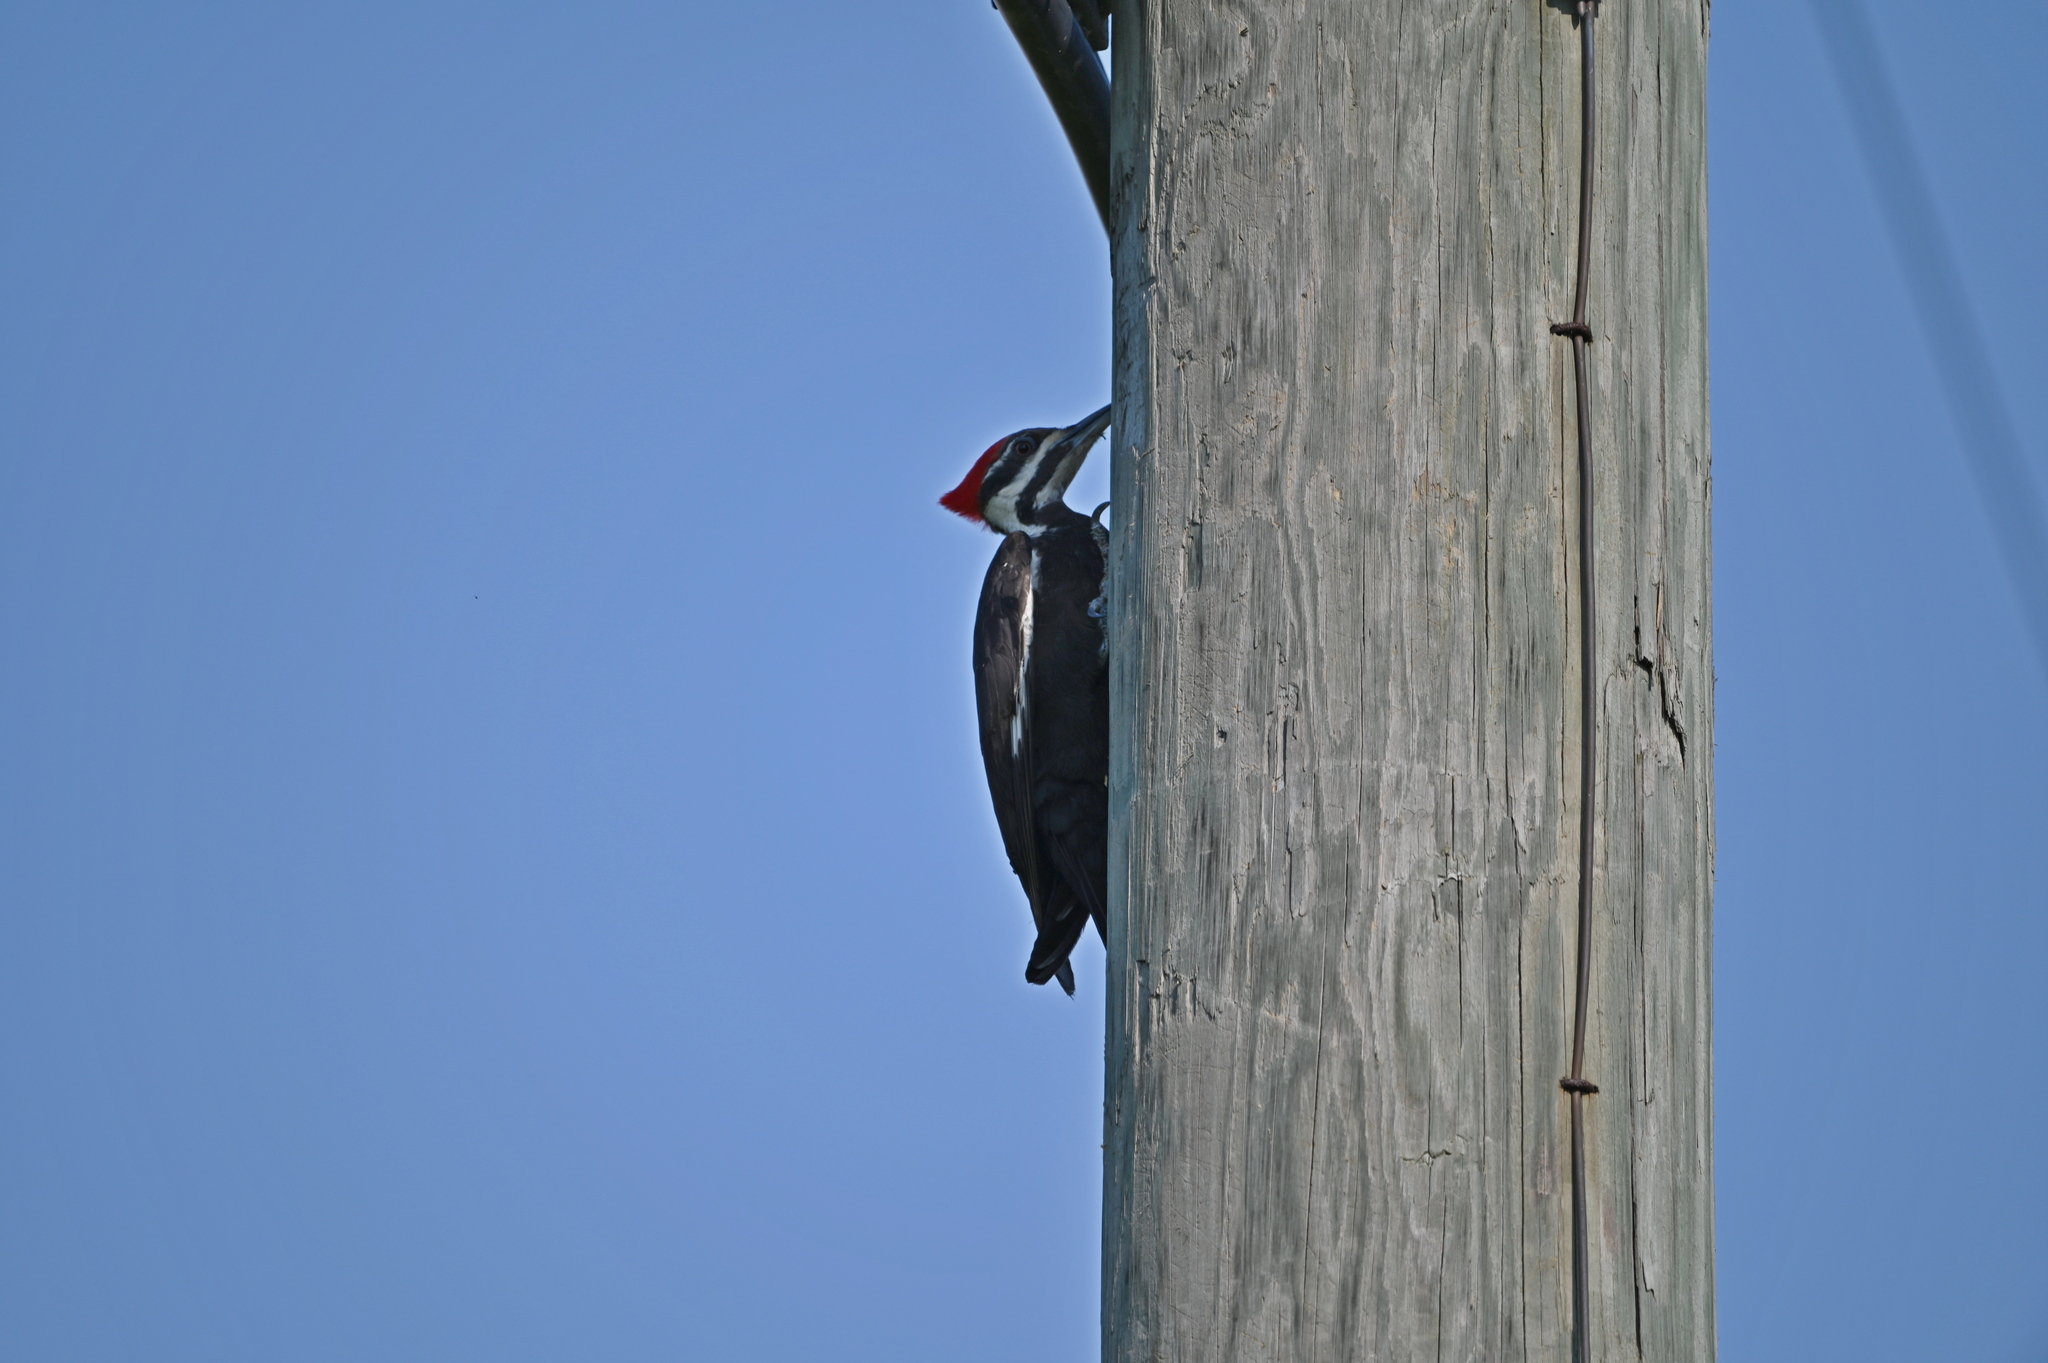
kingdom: Animalia
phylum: Chordata
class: Aves
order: Piciformes
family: Picidae
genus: Dryocopus
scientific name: Dryocopus pileatus
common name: Pileated woodpecker
